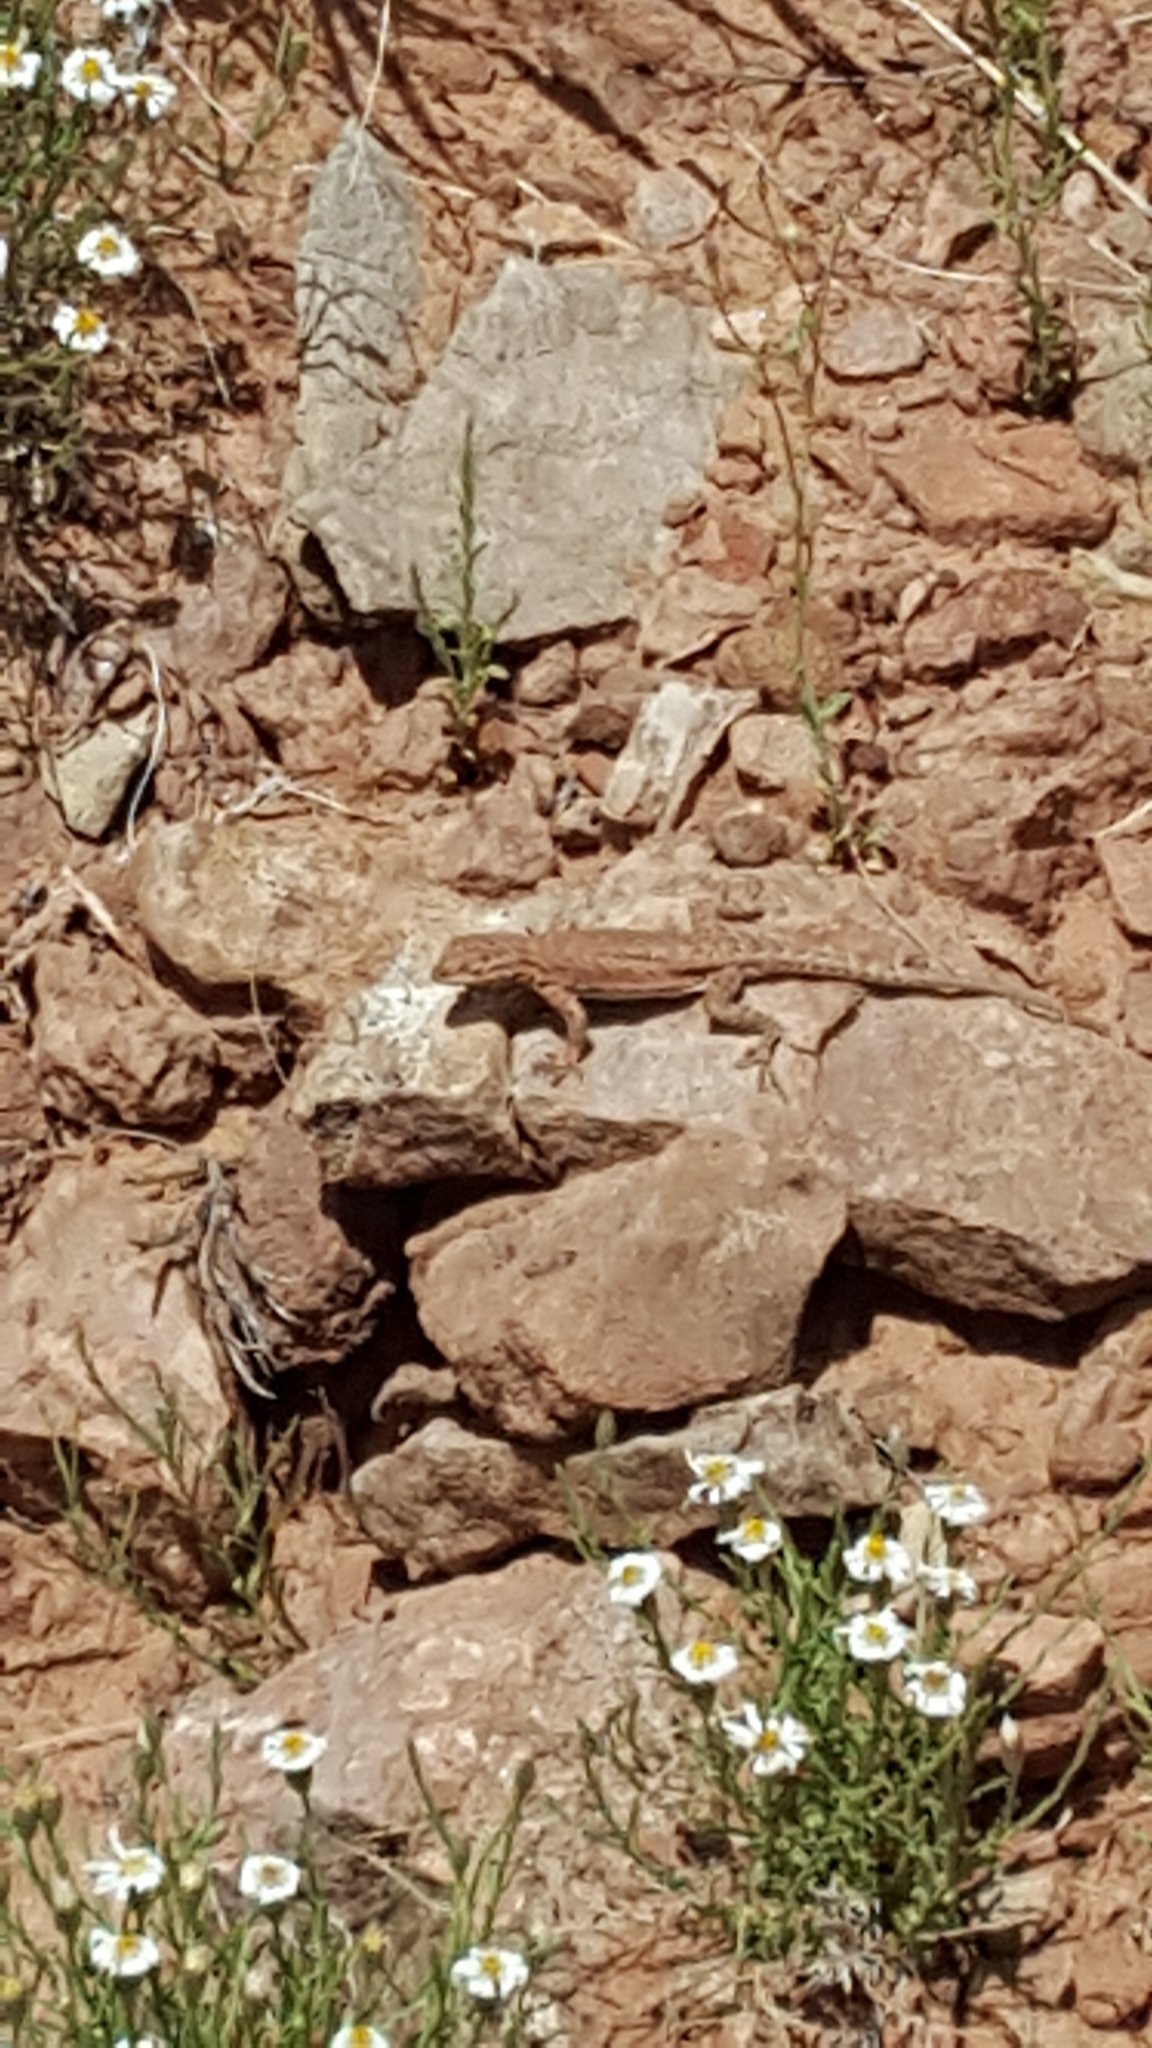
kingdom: Animalia
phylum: Chordata
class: Squamata
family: Phrynosomatidae
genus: Uta
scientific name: Uta stansburiana
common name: Side-blotched lizard
